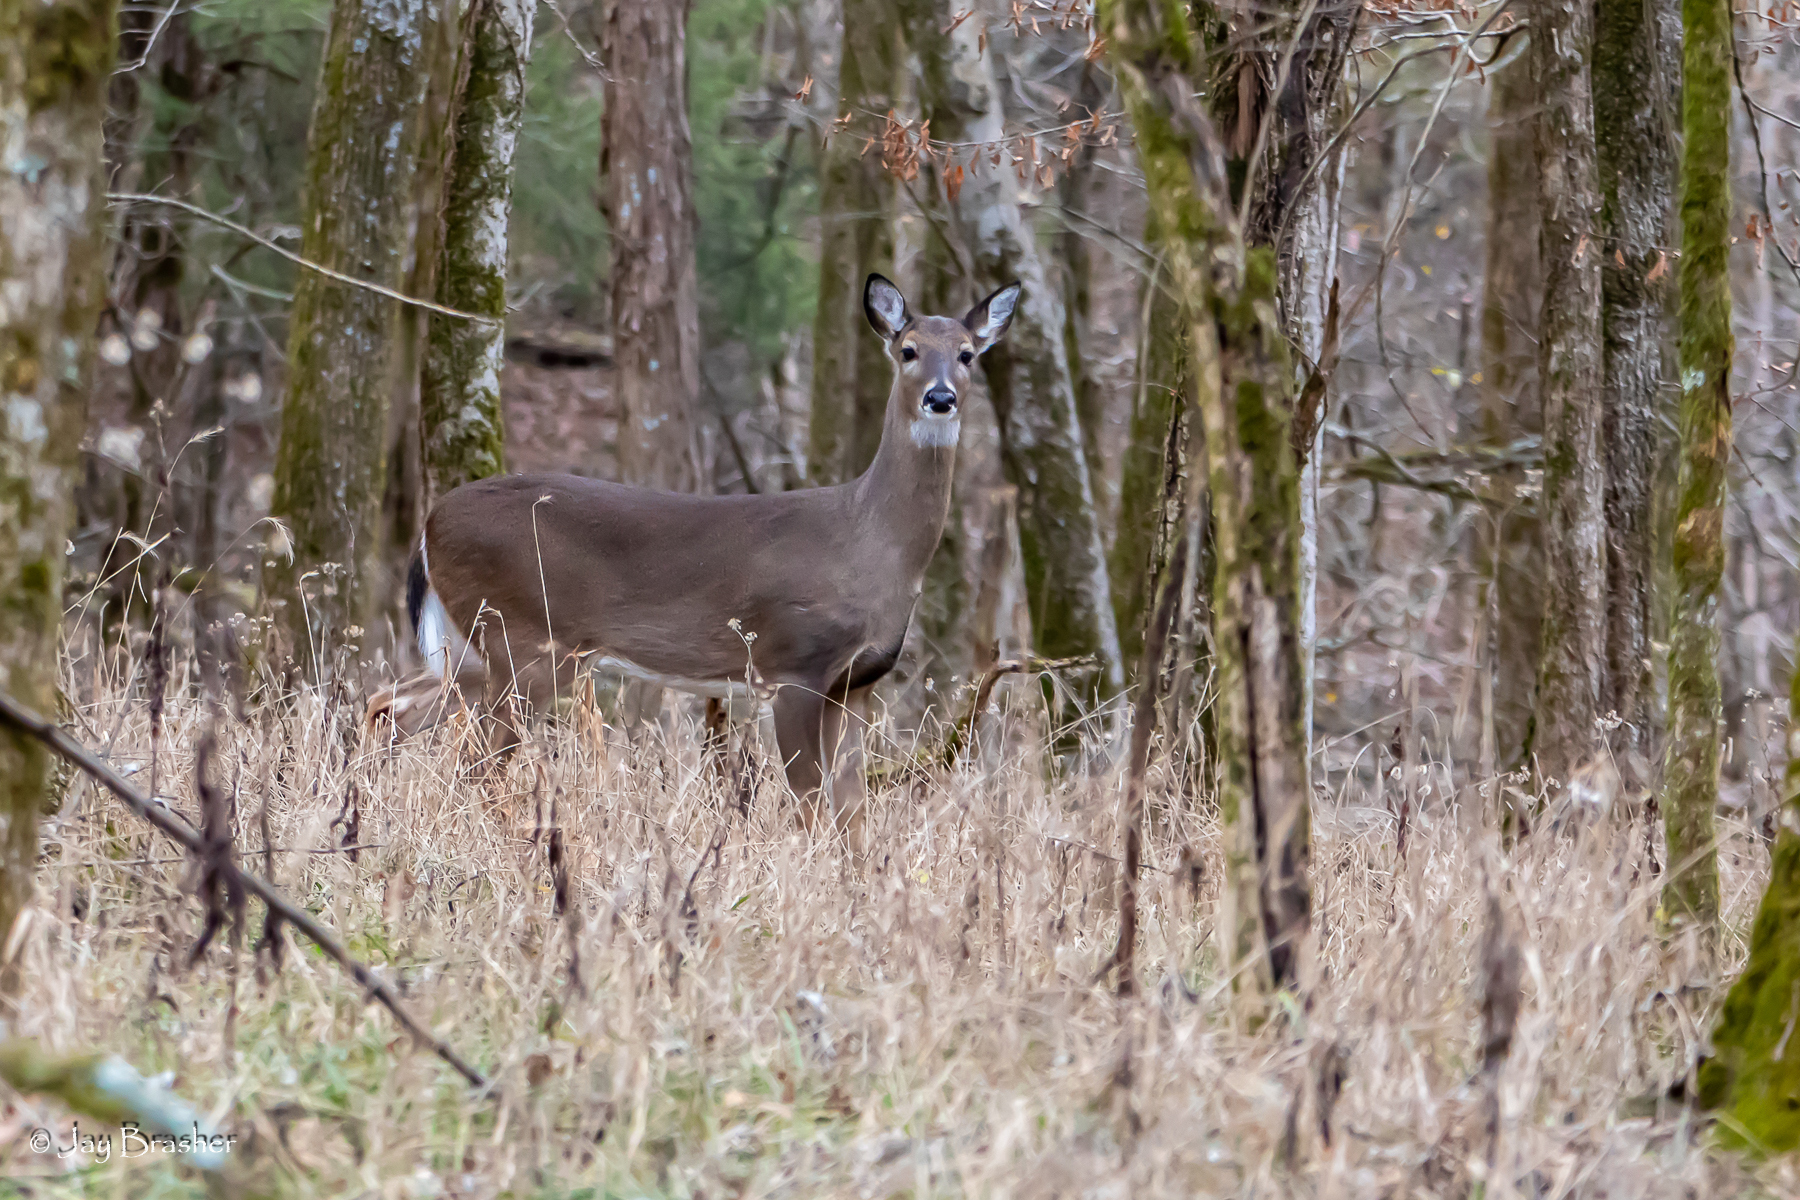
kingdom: Animalia
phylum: Chordata
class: Mammalia
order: Artiodactyla
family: Cervidae
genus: Odocoileus
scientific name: Odocoileus virginianus
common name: White-tailed deer
